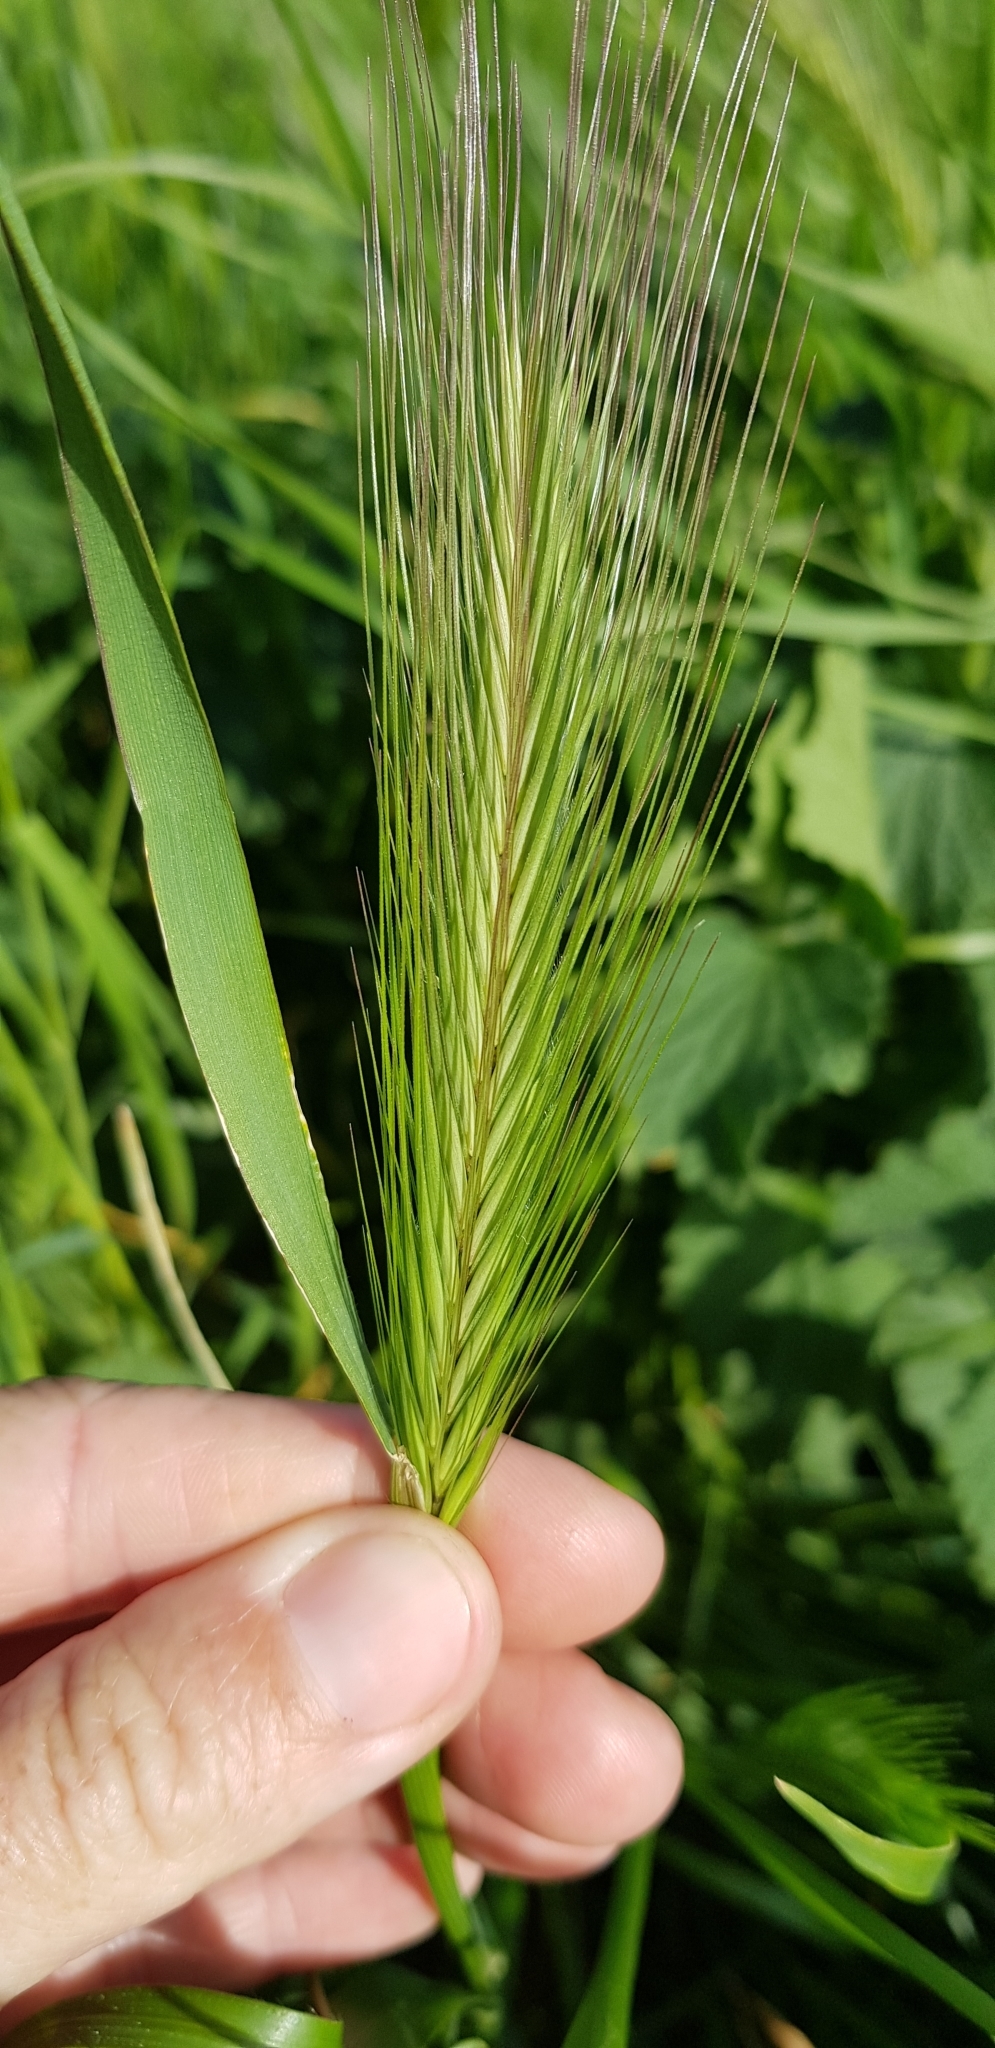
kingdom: Plantae
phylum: Tracheophyta
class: Liliopsida
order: Poales
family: Poaceae
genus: Hordeum
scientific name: Hordeum murinum
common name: Wall barley
